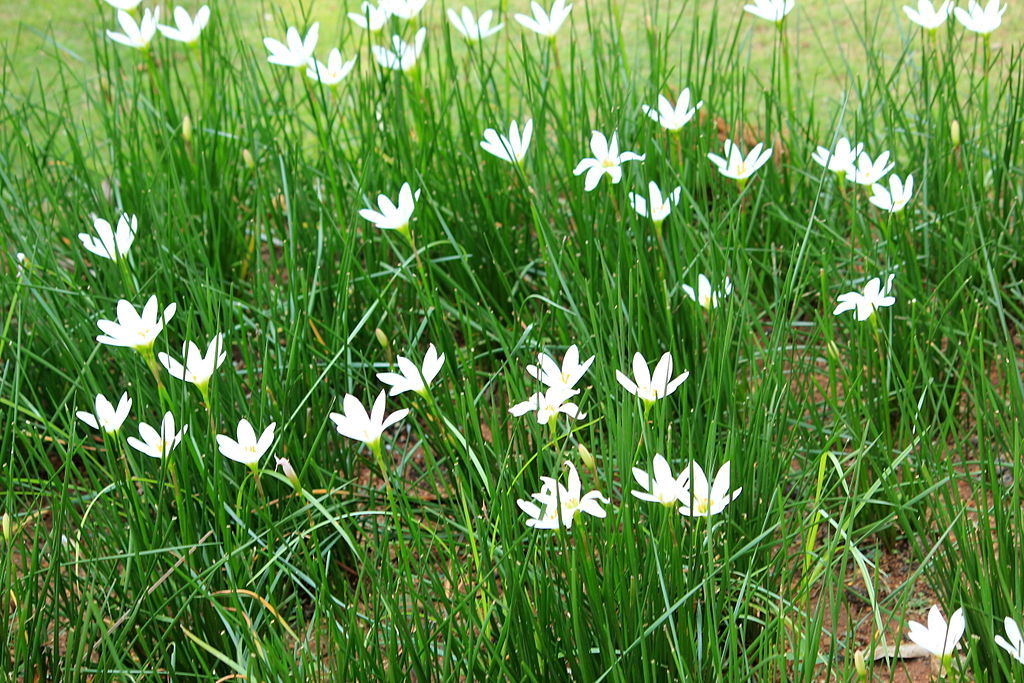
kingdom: Plantae
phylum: Tracheophyta
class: Liliopsida
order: Asparagales
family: Amaryllidaceae
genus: Zephyranthes
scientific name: Zephyranthes candida
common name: Autumn zephyrlily
